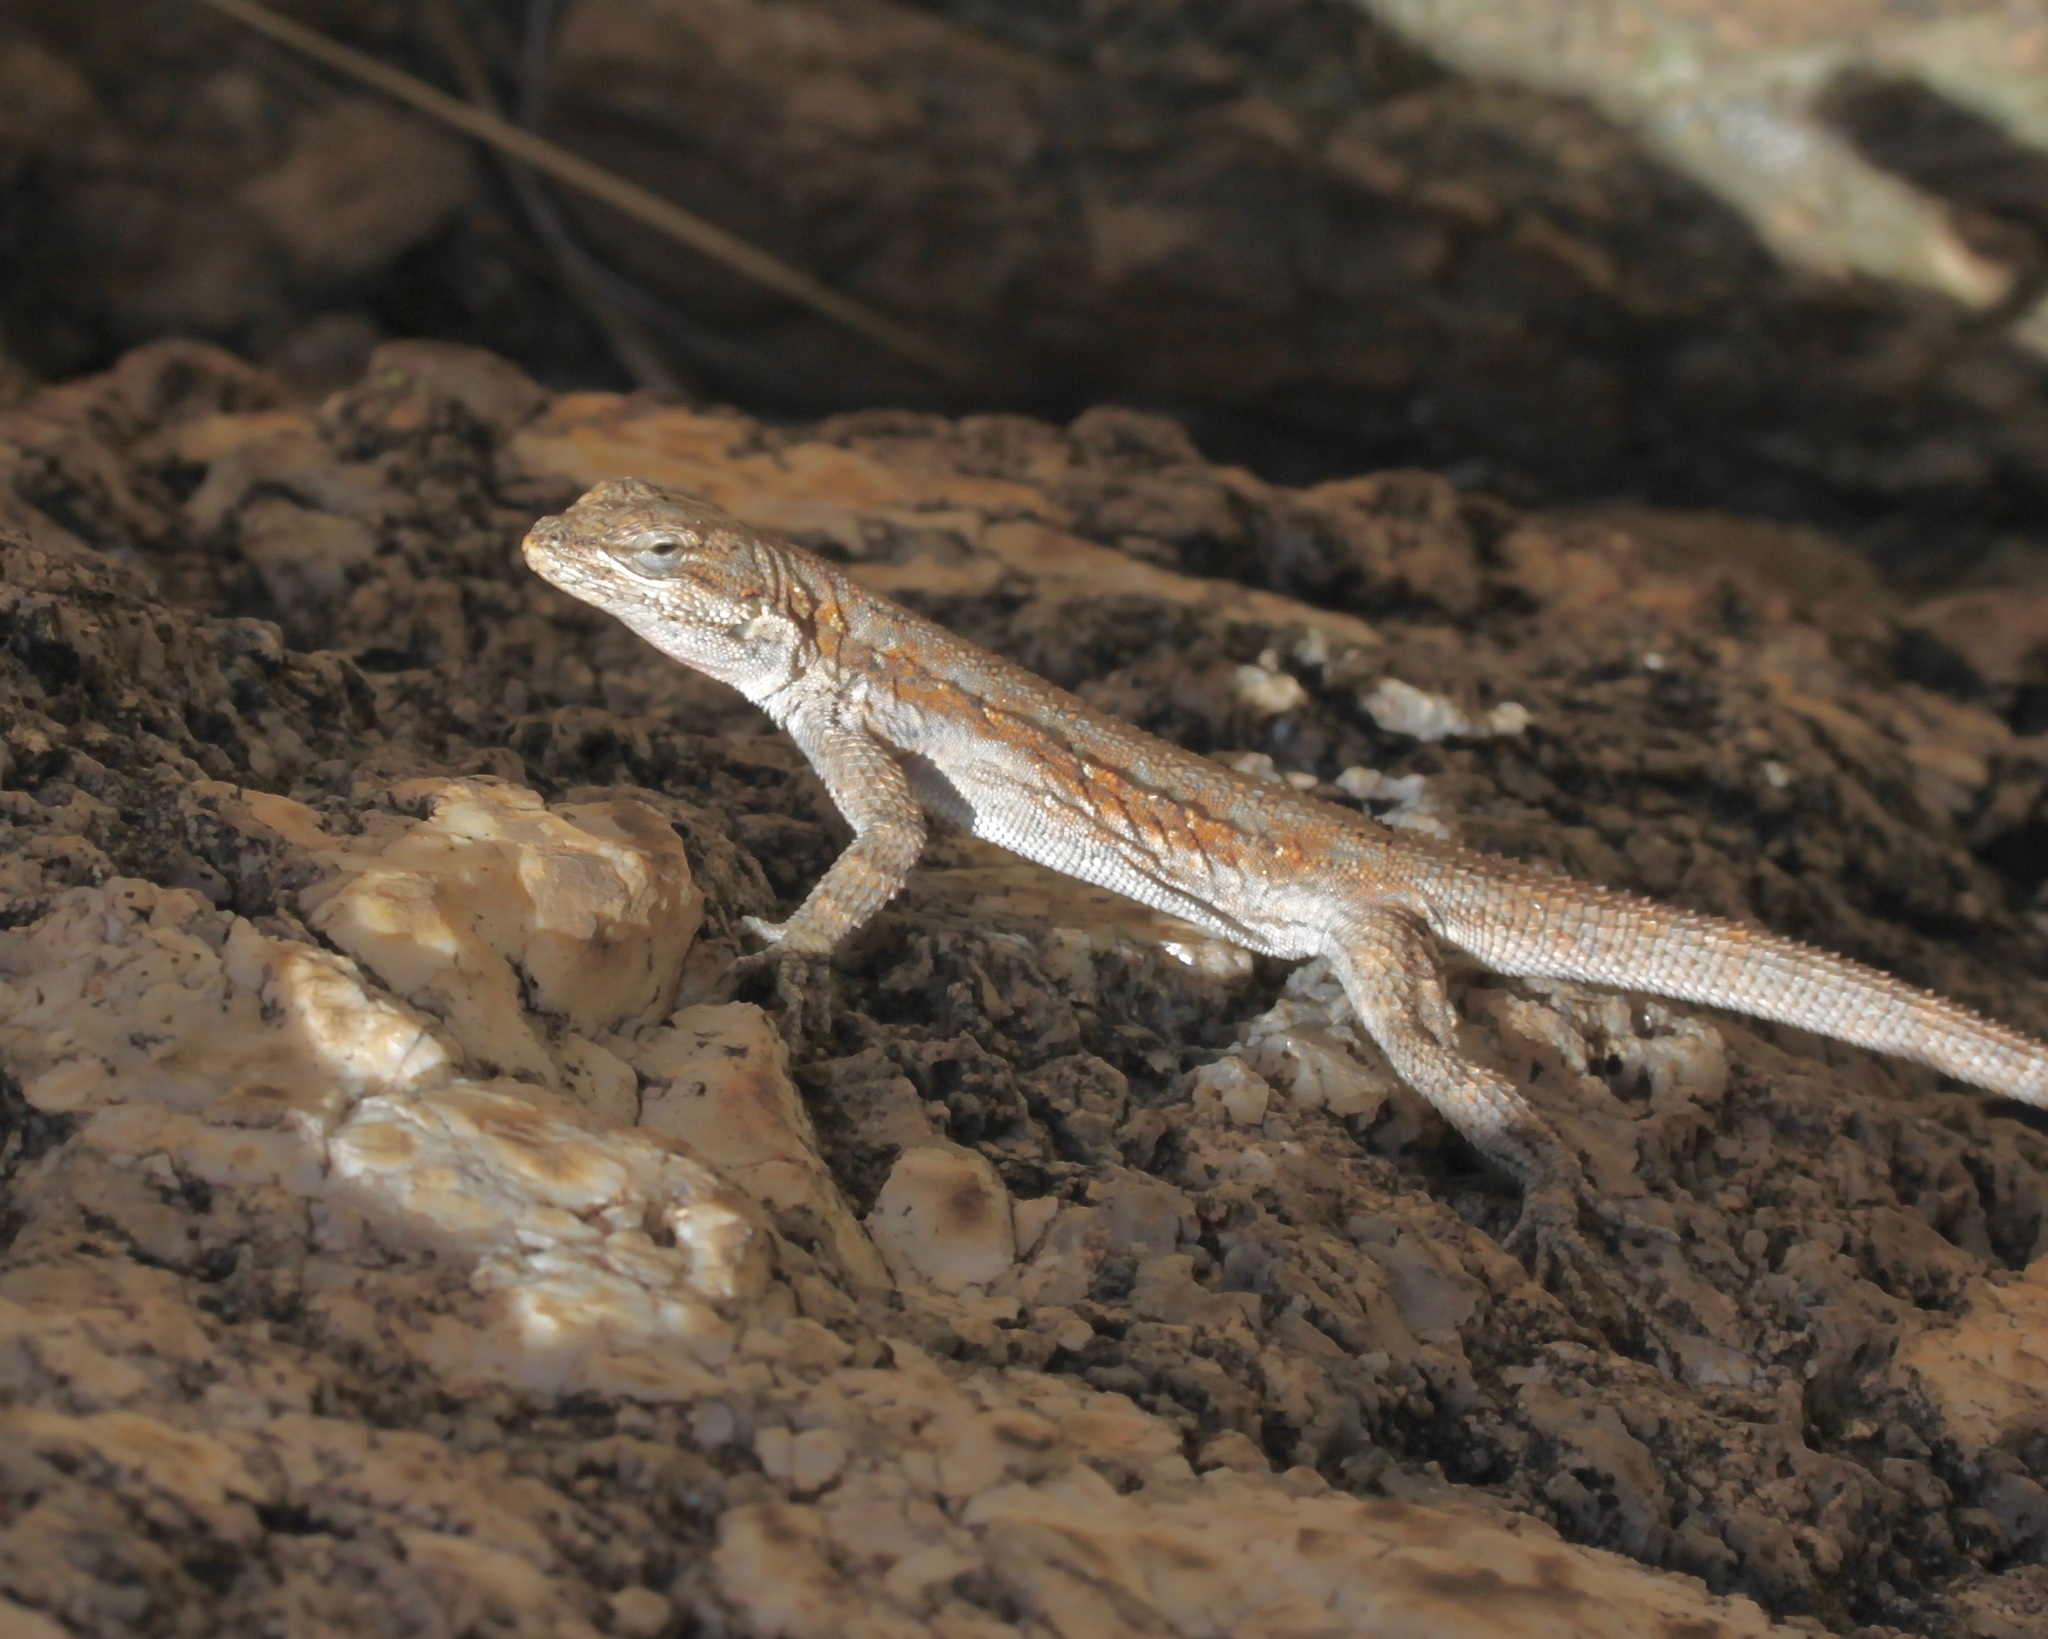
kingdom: Animalia
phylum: Chordata
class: Squamata
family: Phrynosomatidae
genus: Urosaurus
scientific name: Urosaurus ornatus
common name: Ornate tree lizard
